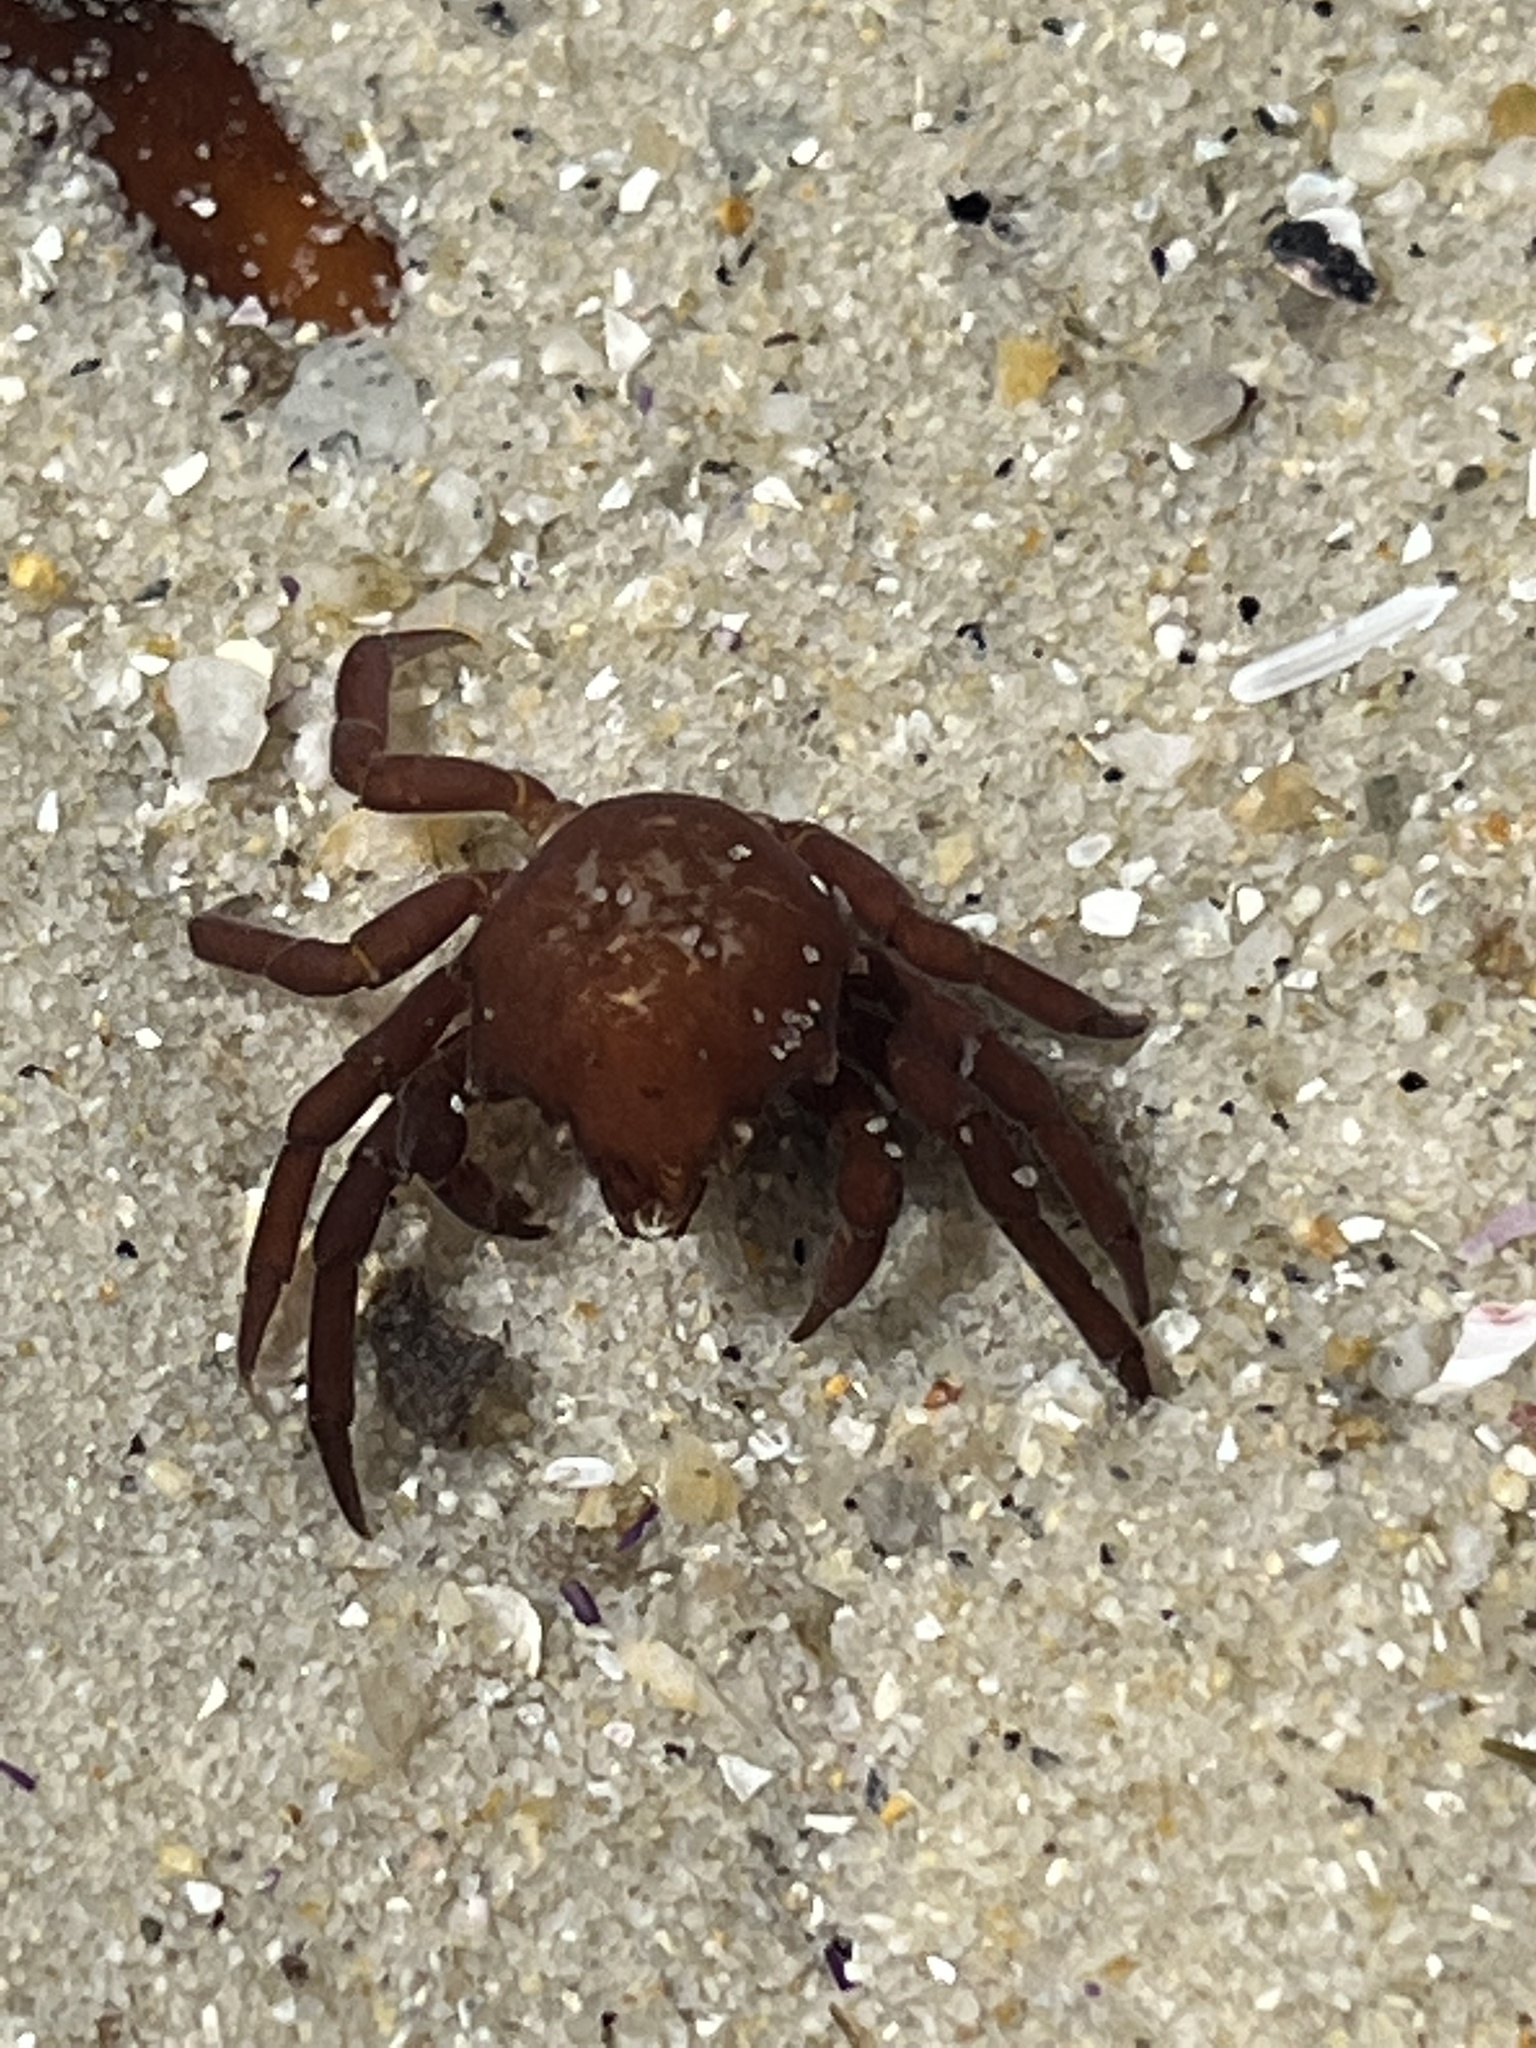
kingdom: Animalia
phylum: Arthropoda
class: Malacostraca
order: Decapoda
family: Epialtidae
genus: Pugettia
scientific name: Pugettia producta
